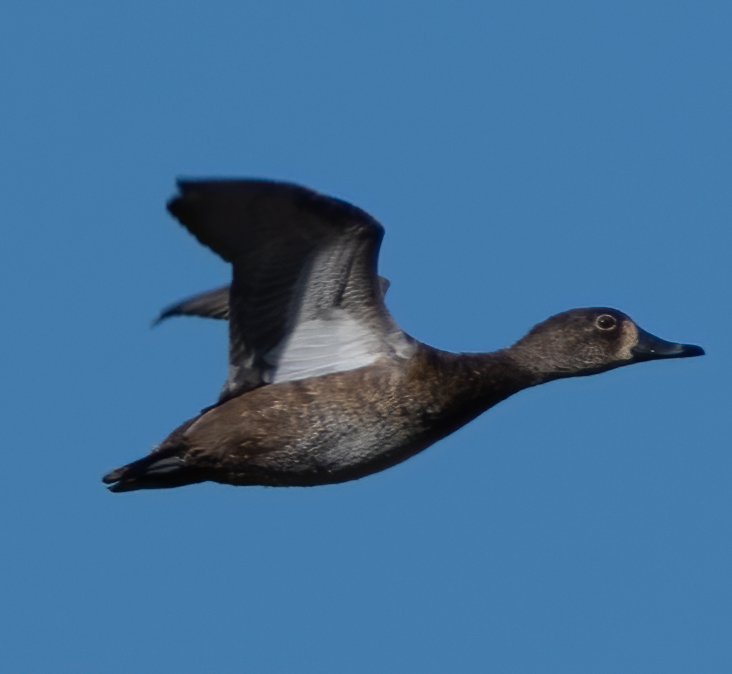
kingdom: Animalia
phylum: Chordata
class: Aves
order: Anseriformes
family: Anatidae
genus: Spatula
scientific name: Spatula discors
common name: Blue-winged teal
